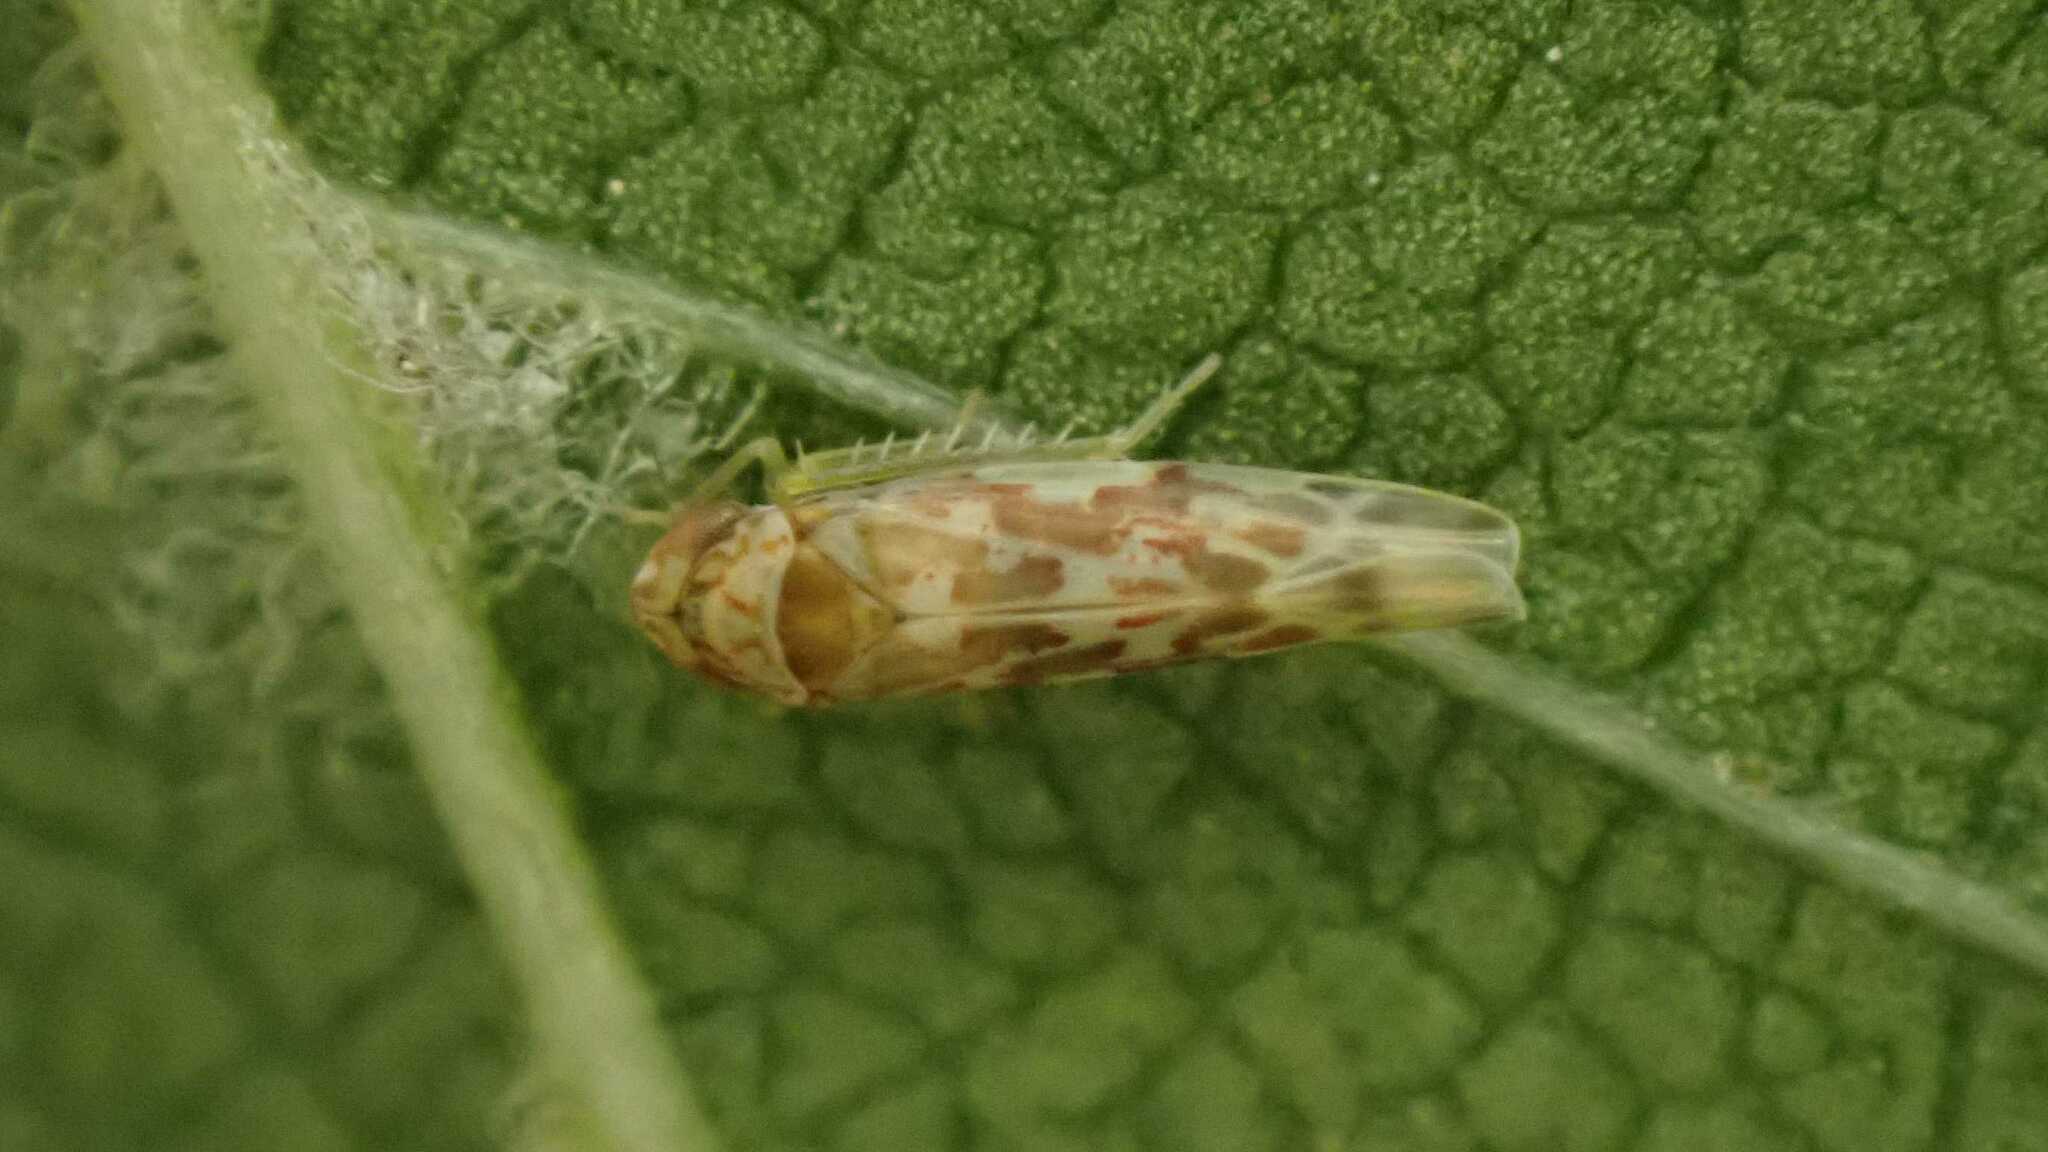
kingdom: Animalia
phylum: Arthropoda
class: Insecta
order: Hemiptera
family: Cicadellidae
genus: Tautoneura
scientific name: Tautoneura polymitusa
